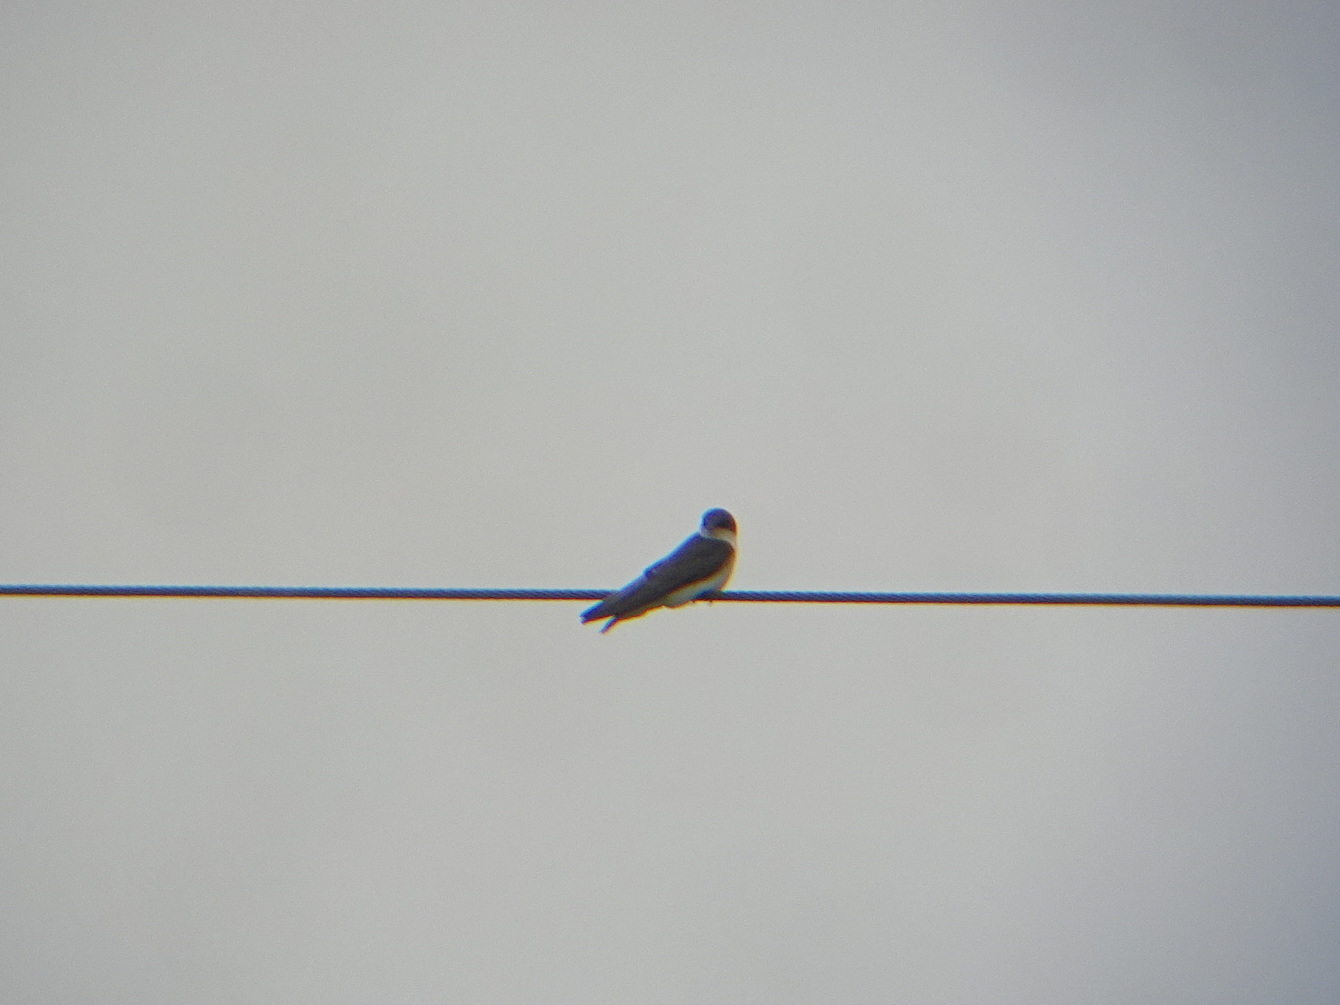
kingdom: Animalia
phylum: Chordata
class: Aves
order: Passeriformes
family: Hirundinidae
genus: Tachycineta
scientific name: Tachycineta bicolor
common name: Tree swallow
